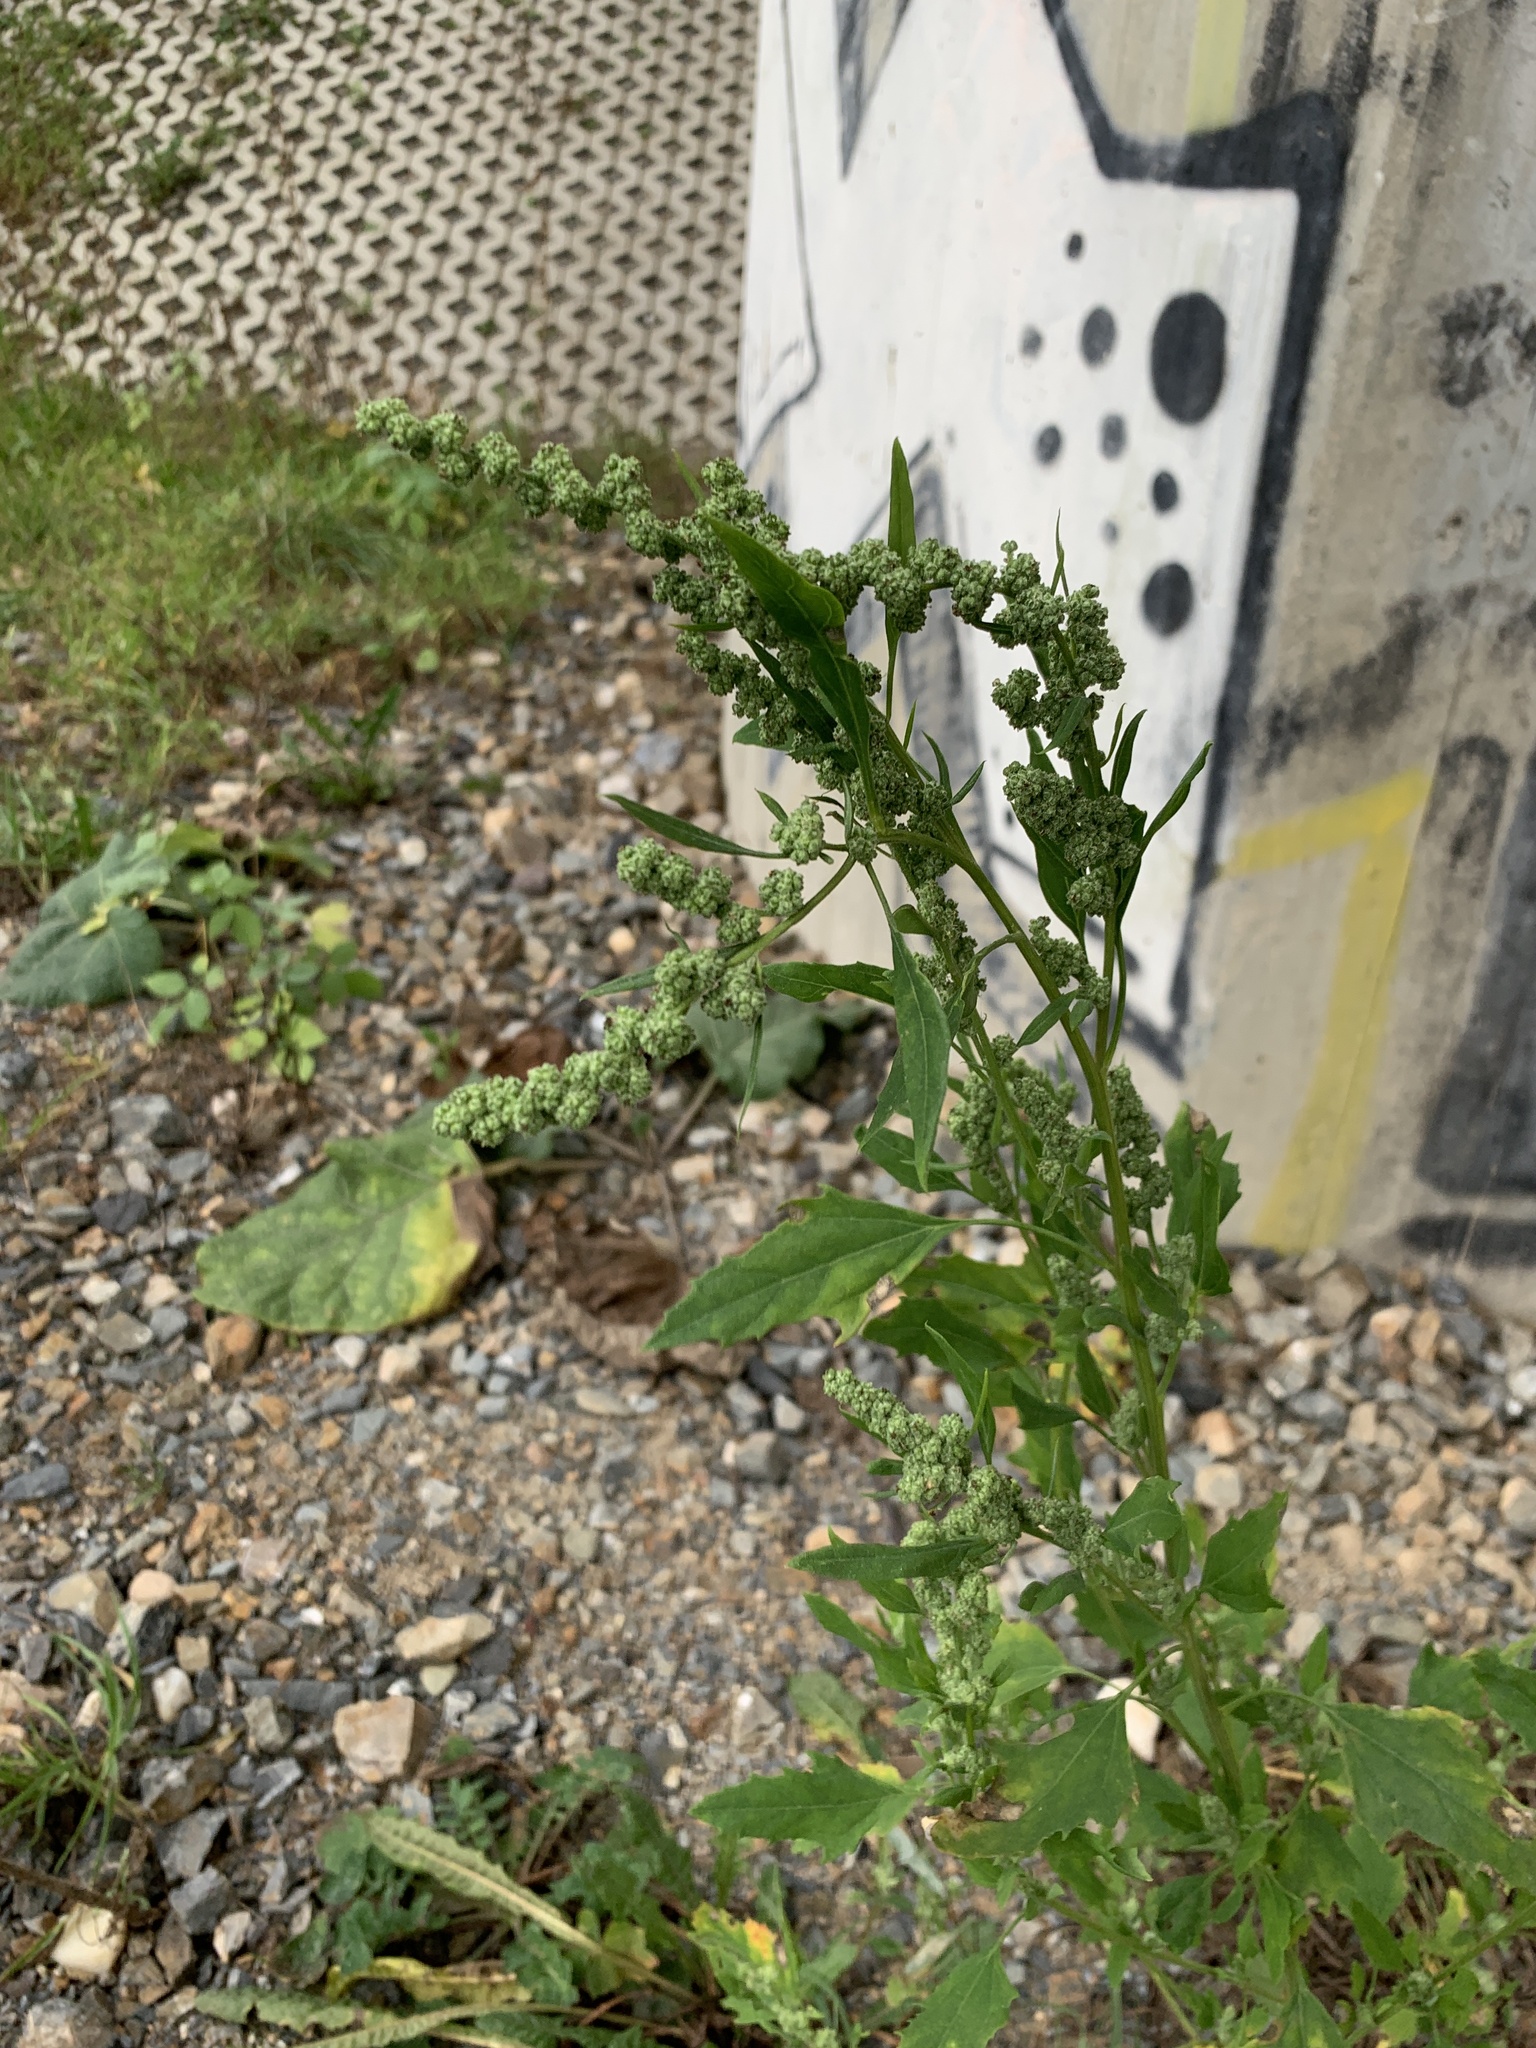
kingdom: Plantae
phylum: Tracheophyta
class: Magnoliopsida
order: Caryophyllales
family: Amaranthaceae
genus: Chenopodium
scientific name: Chenopodium album
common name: Fat-hen
